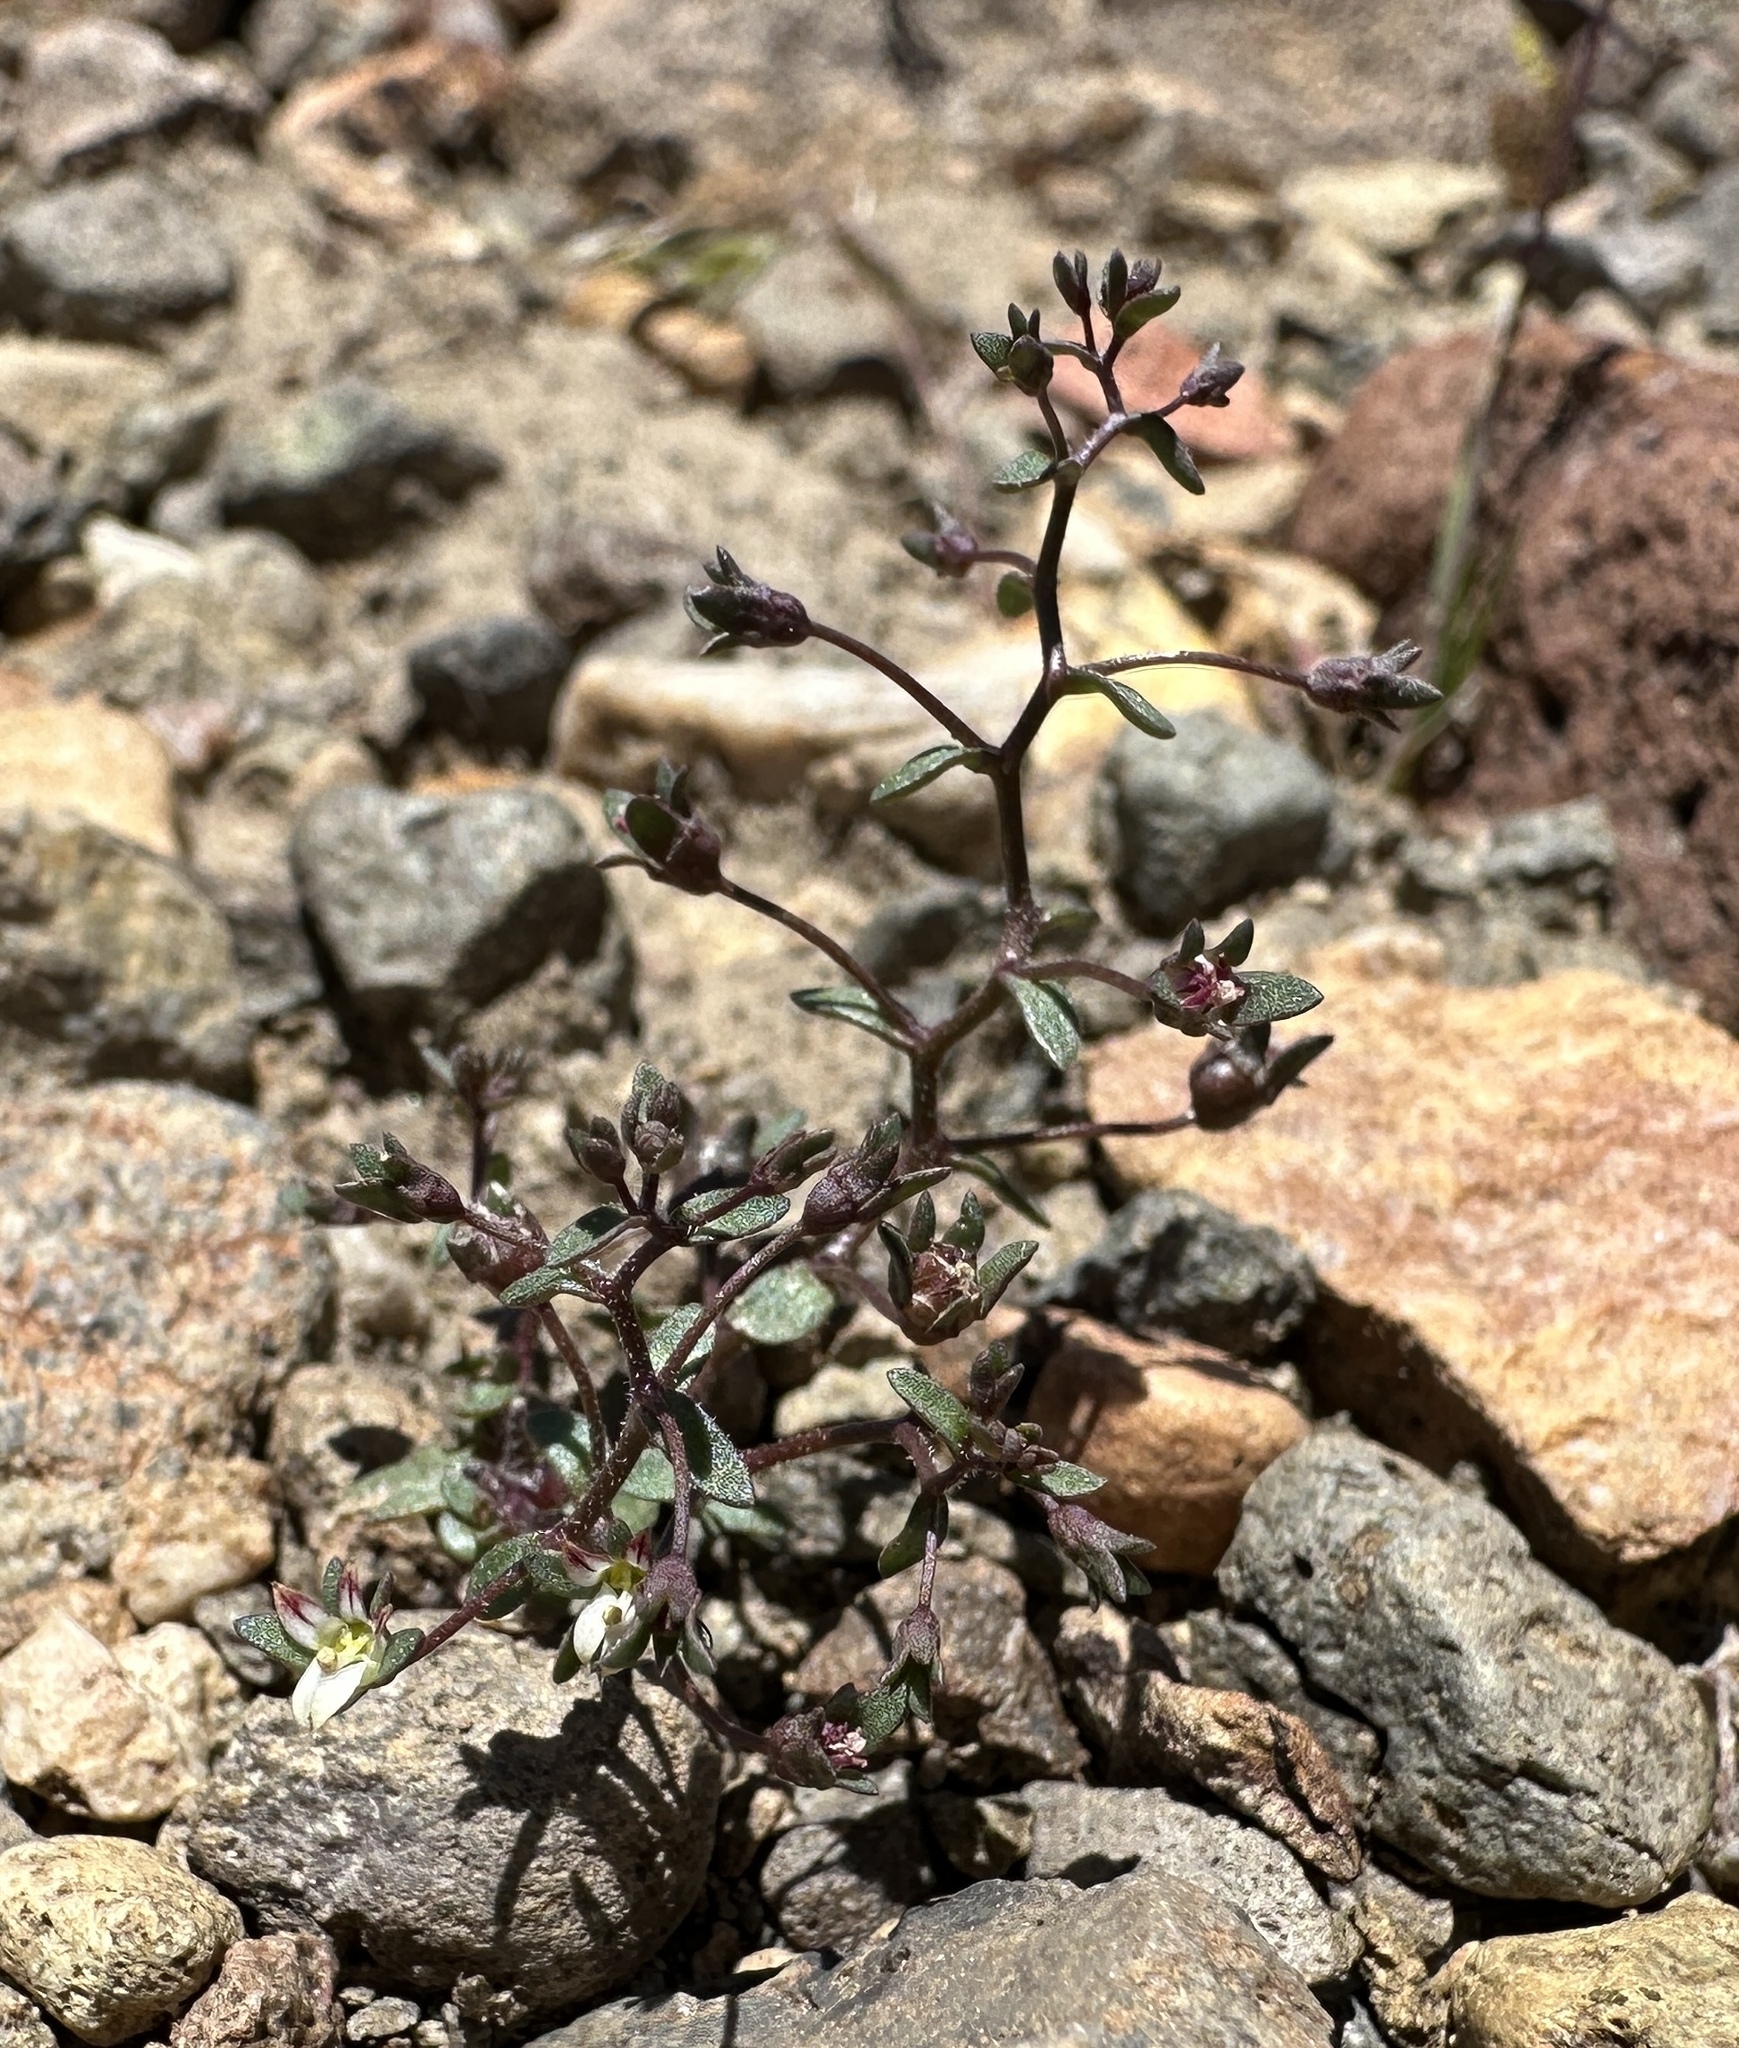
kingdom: Plantae
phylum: Tracheophyta
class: Magnoliopsida
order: Asterales
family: Campanulaceae
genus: Nemacladus
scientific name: Nemacladus rigidus
